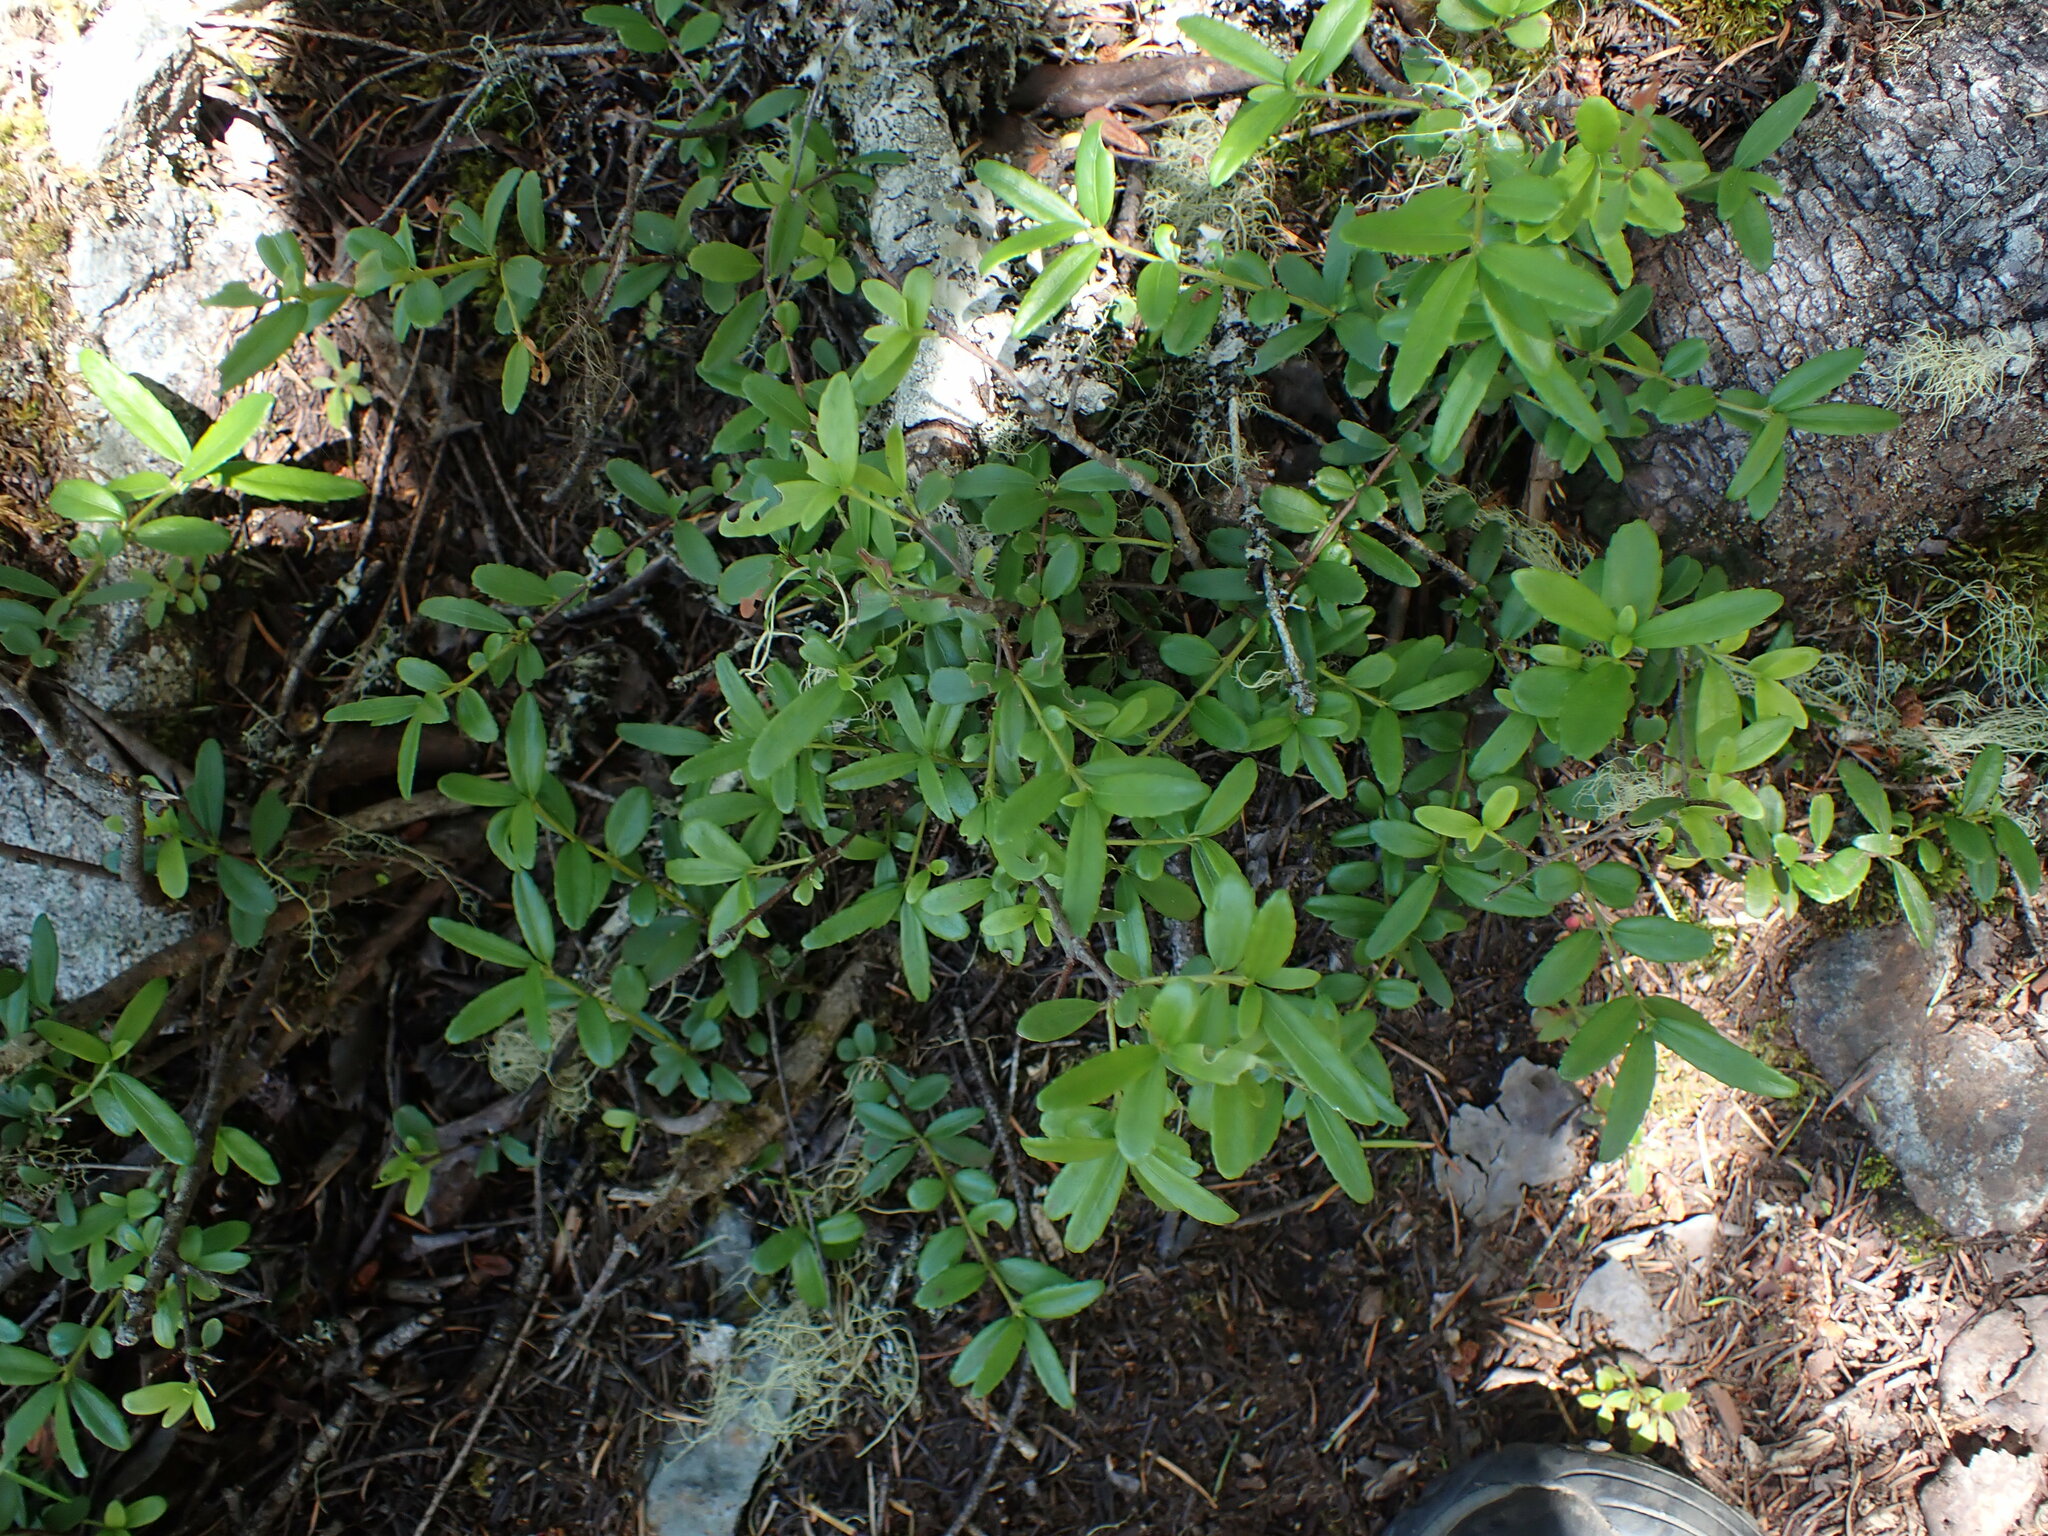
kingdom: Plantae
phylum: Tracheophyta
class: Magnoliopsida
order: Celastrales
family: Celastraceae
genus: Paxistima
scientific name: Paxistima myrsinites
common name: Mountain-lover
